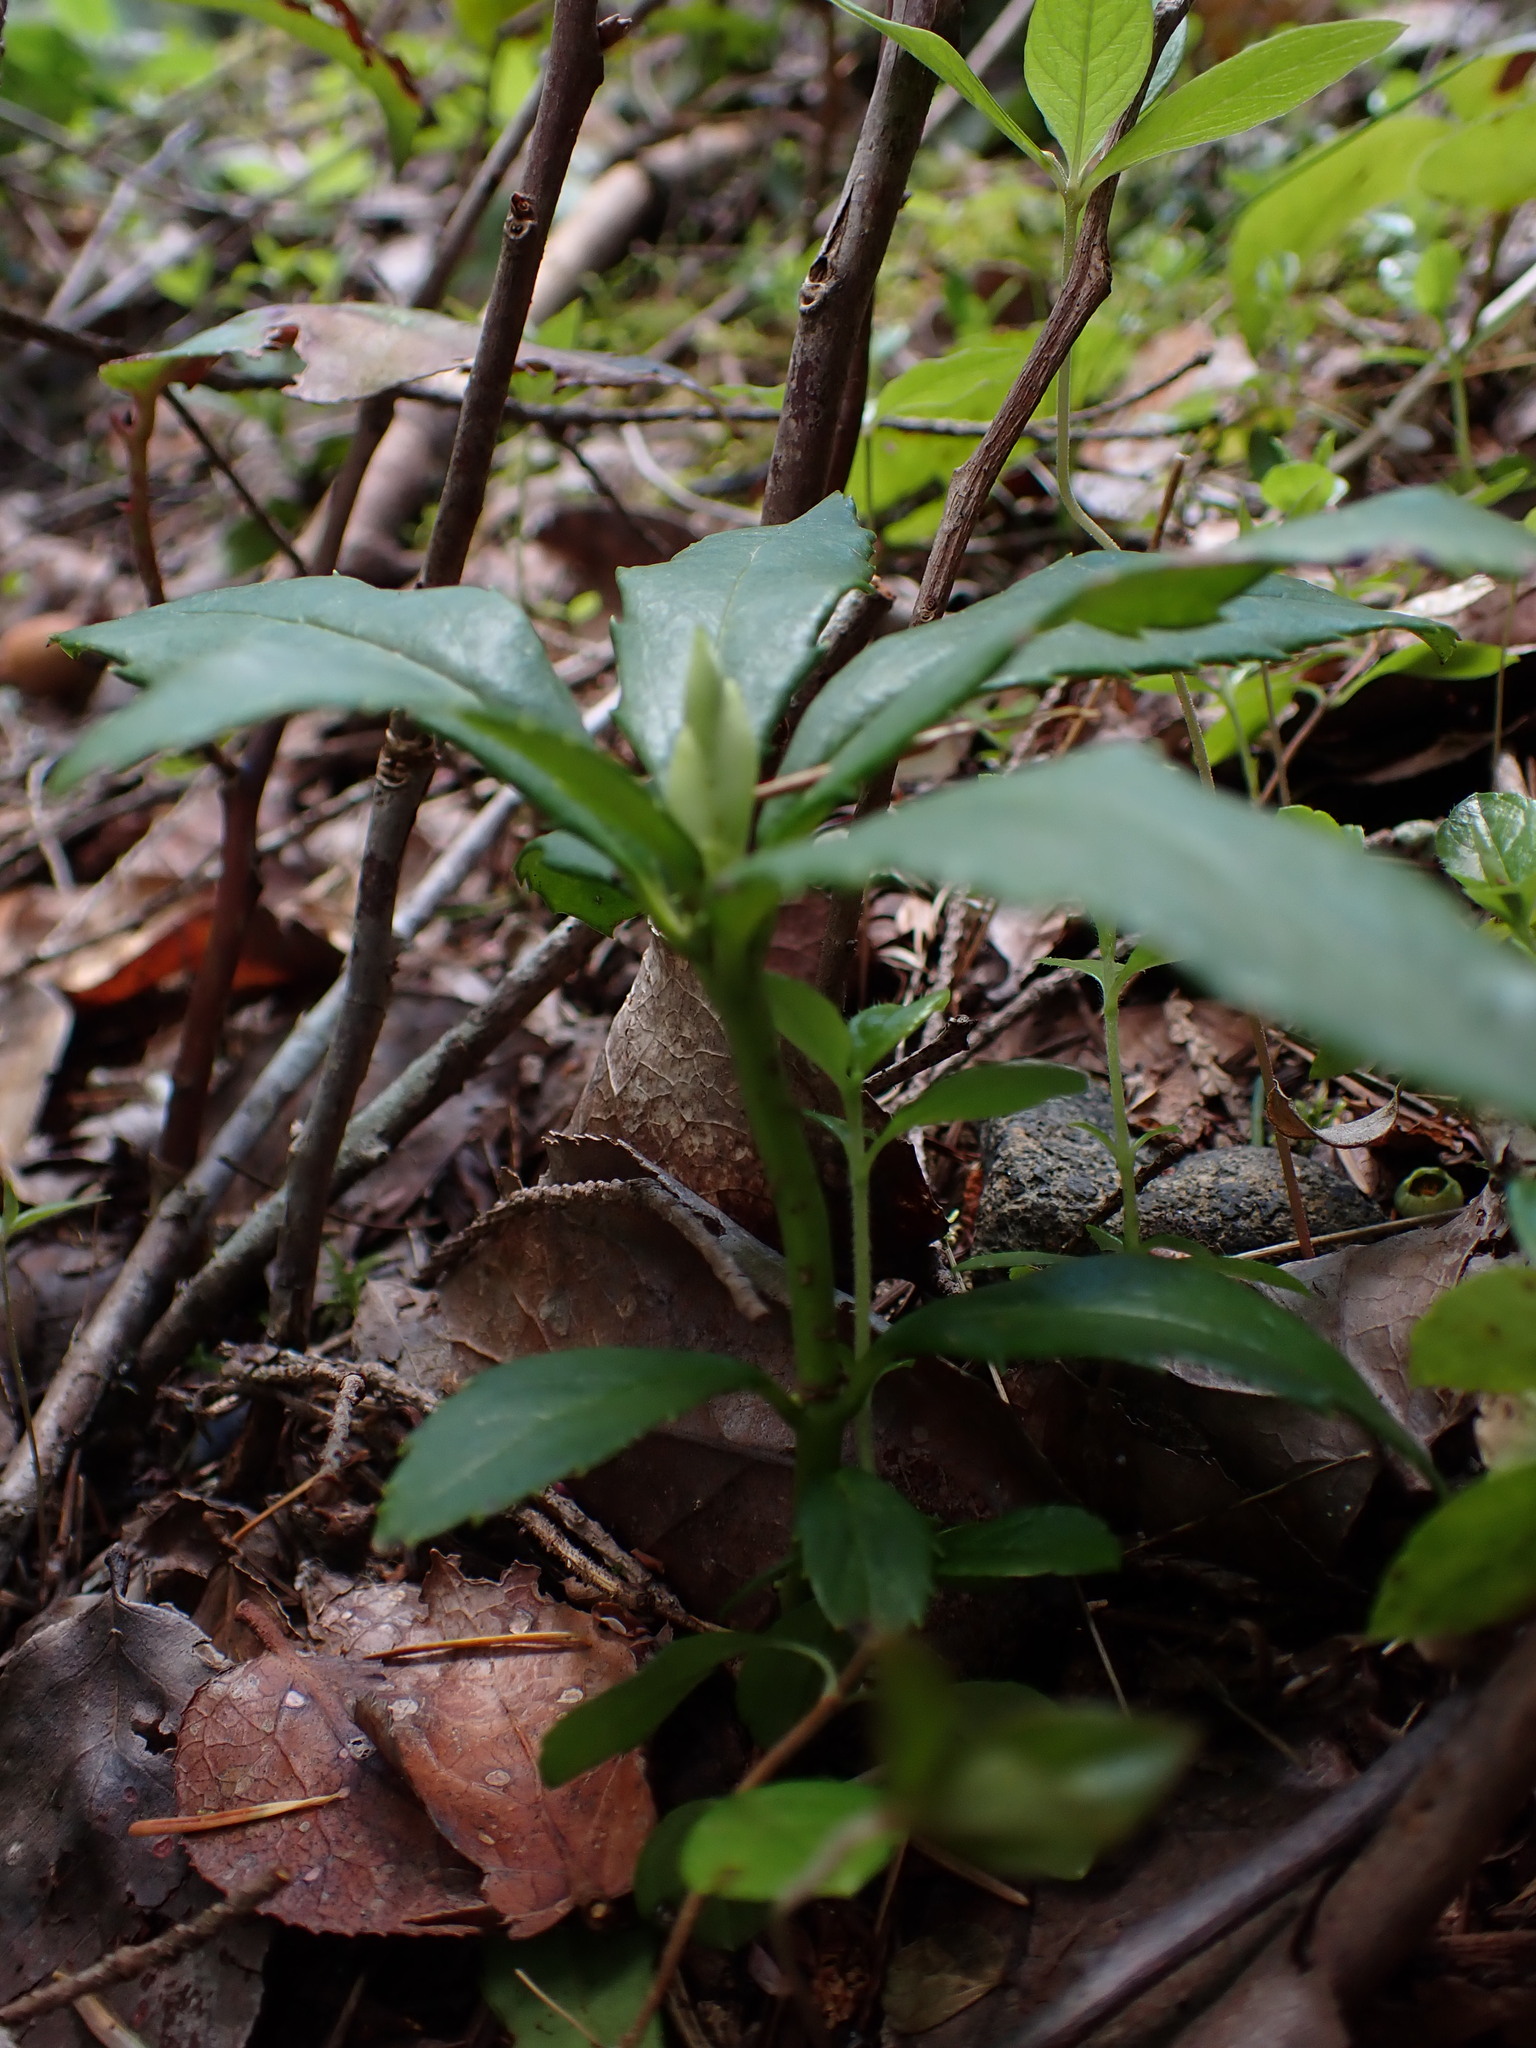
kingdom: Plantae
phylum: Tracheophyta
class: Magnoliopsida
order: Ericales
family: Ericaceae
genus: Chimaphila
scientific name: Chimaphila umbellata
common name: Pipsissewa
